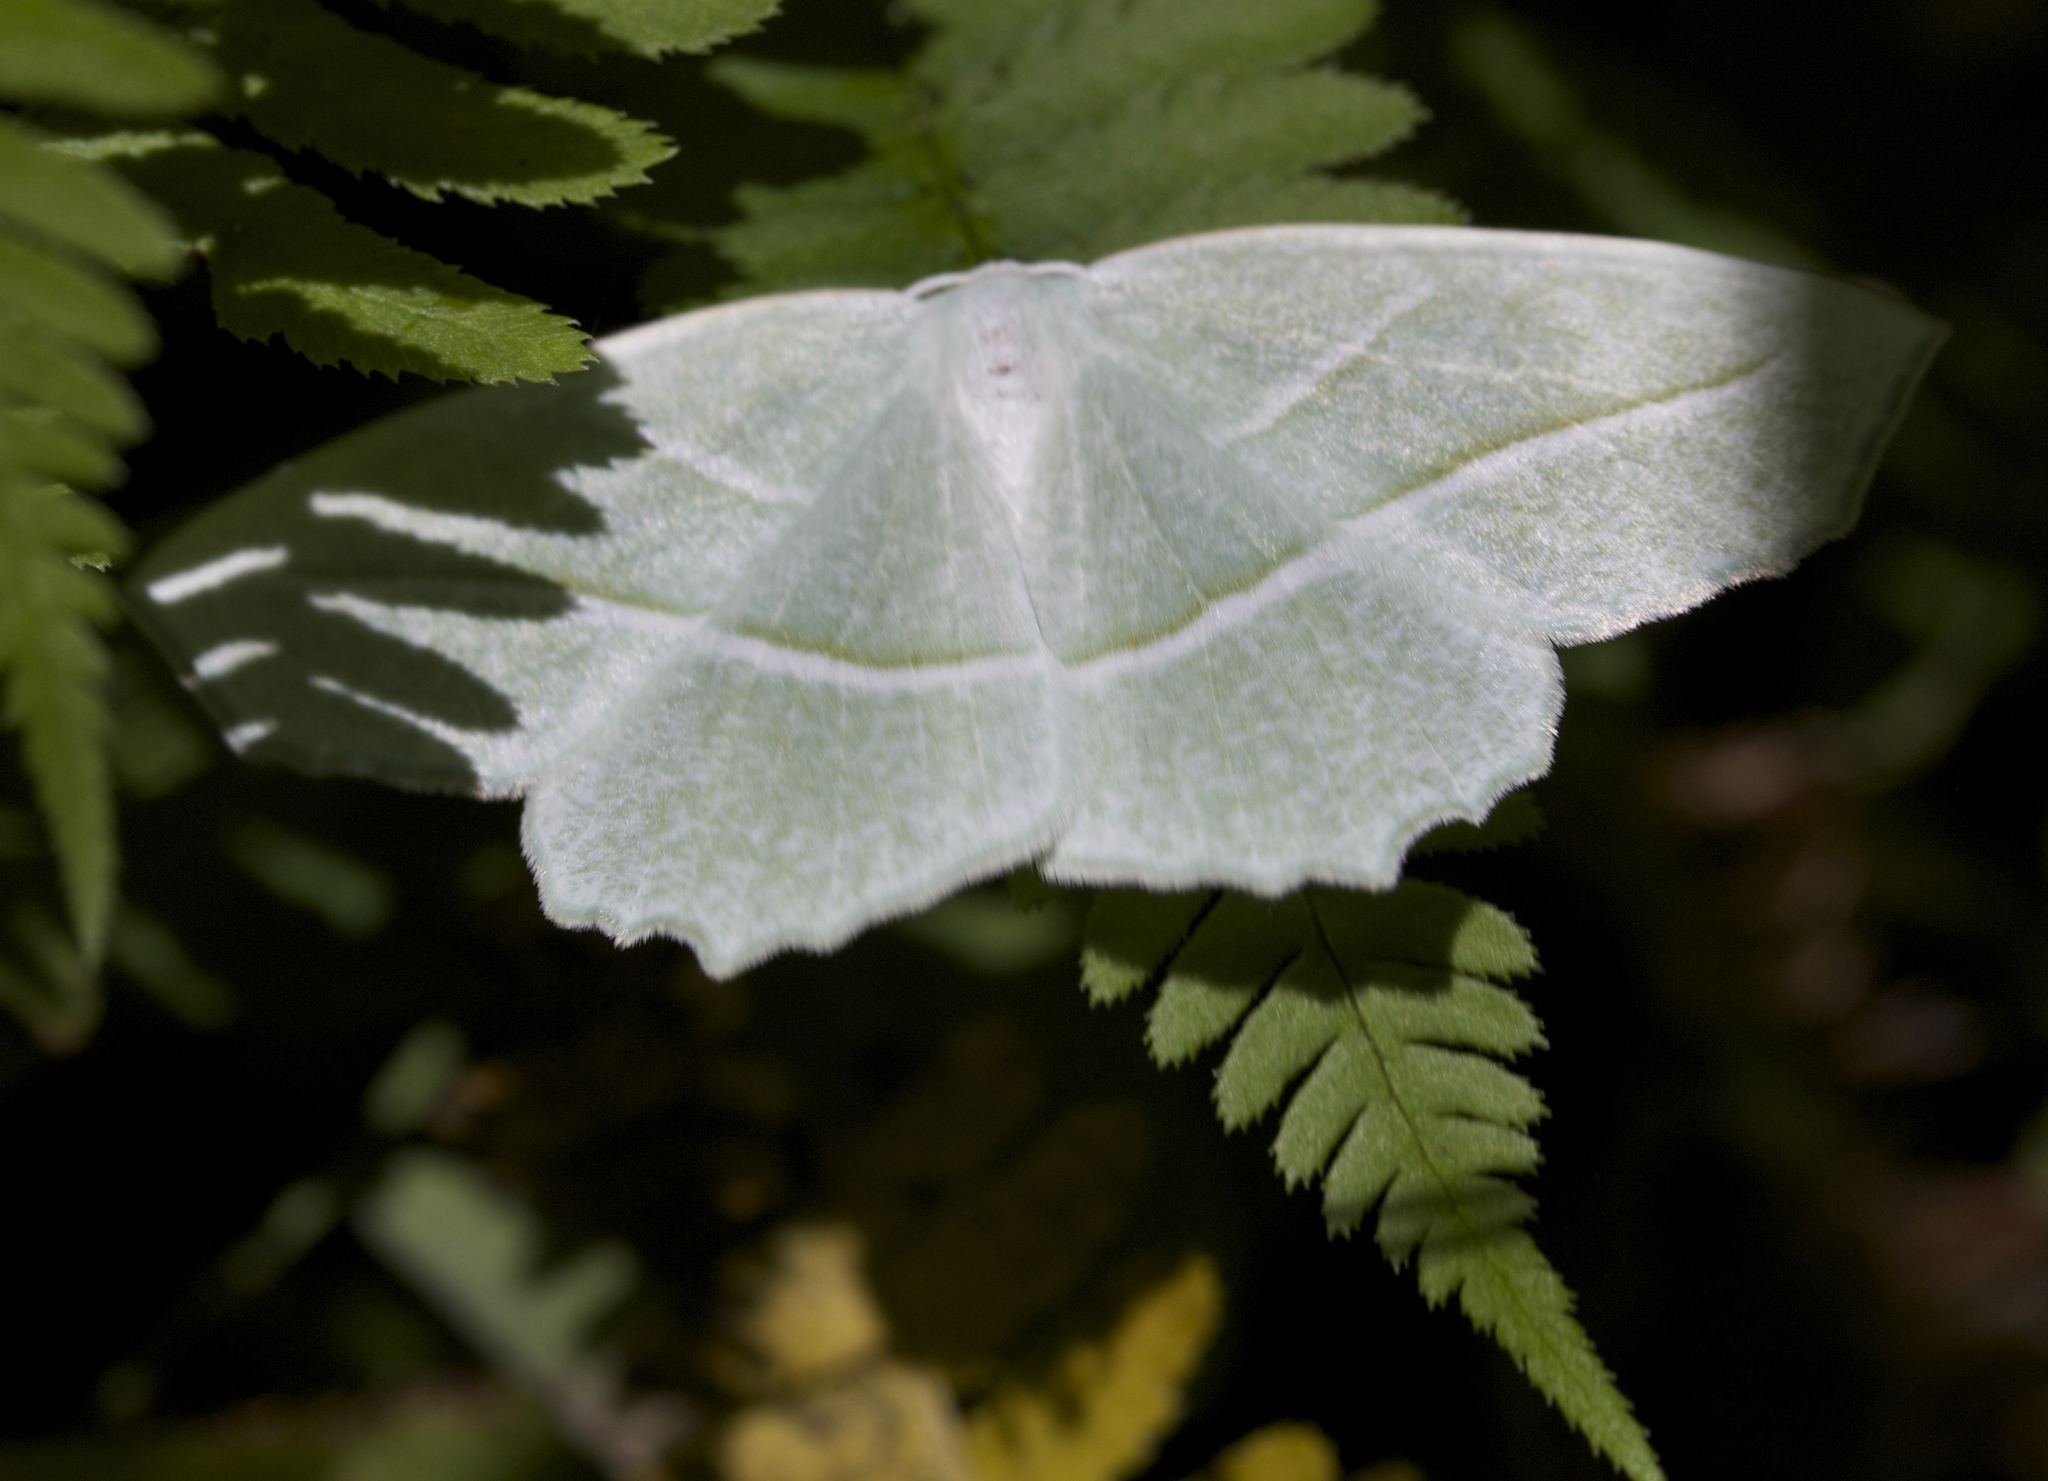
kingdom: Animalia
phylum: Arthropoda
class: Insecta
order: Lepidoptera
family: Geometridae
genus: Campaea
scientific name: Campaea perlata
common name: Fringed looper
